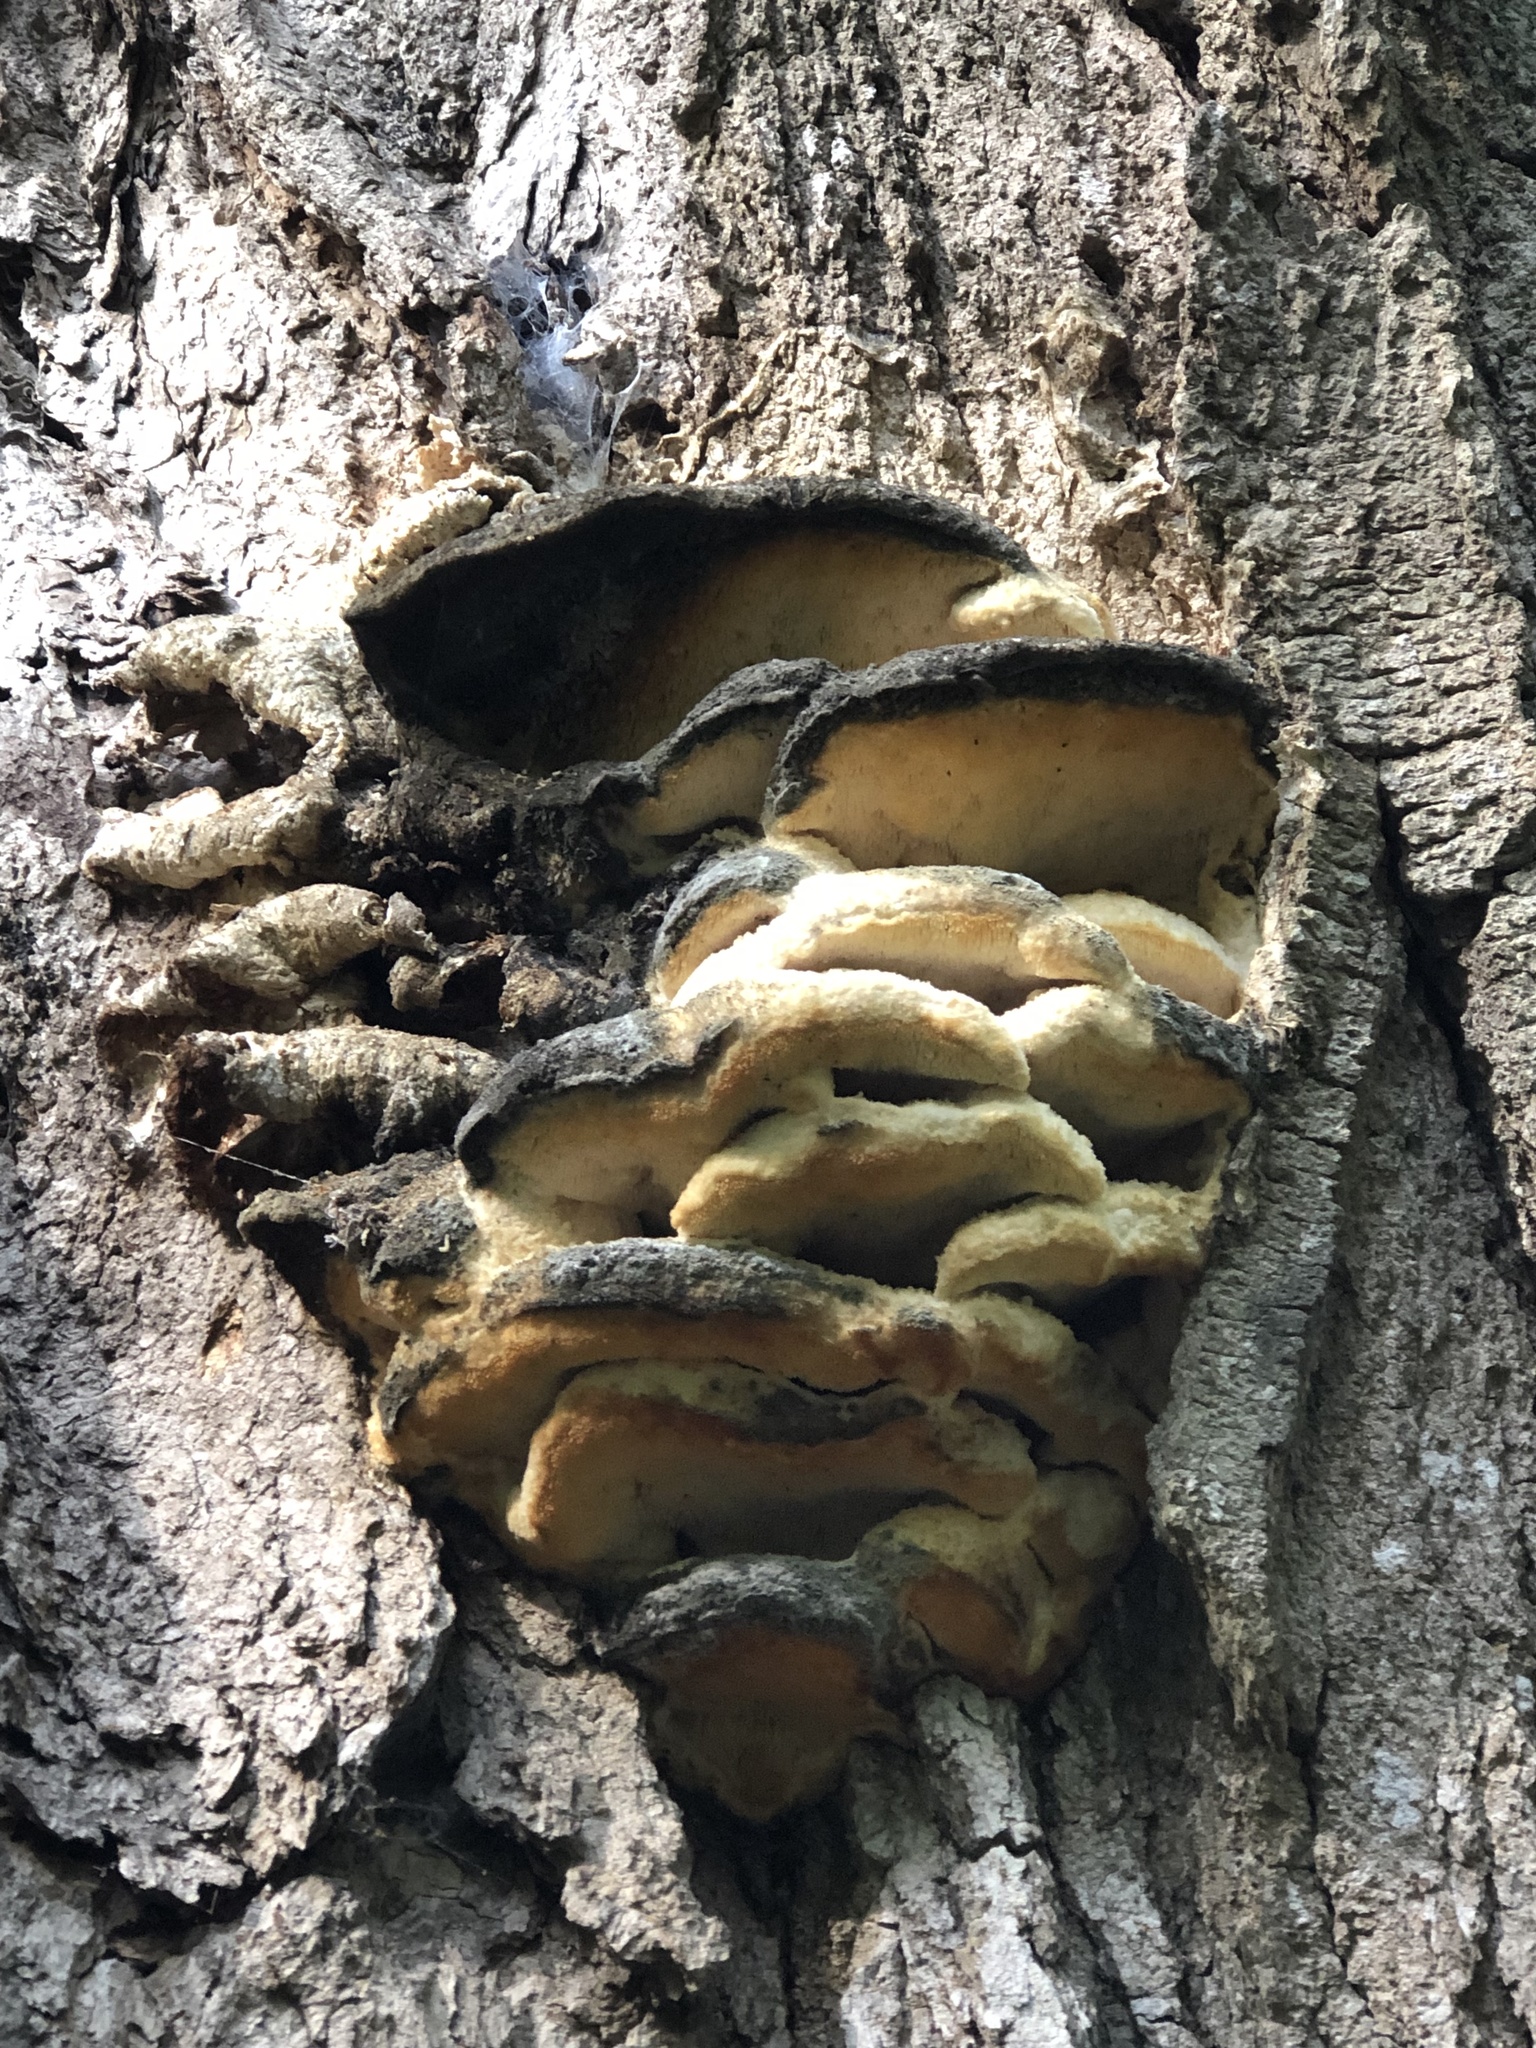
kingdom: Fungi
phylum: Basidiomycota
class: Agaricomycetes
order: Polyporales
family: Meruliaceae
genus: Climacodon
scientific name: Climacodon septentrionalis
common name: Northern tooth
